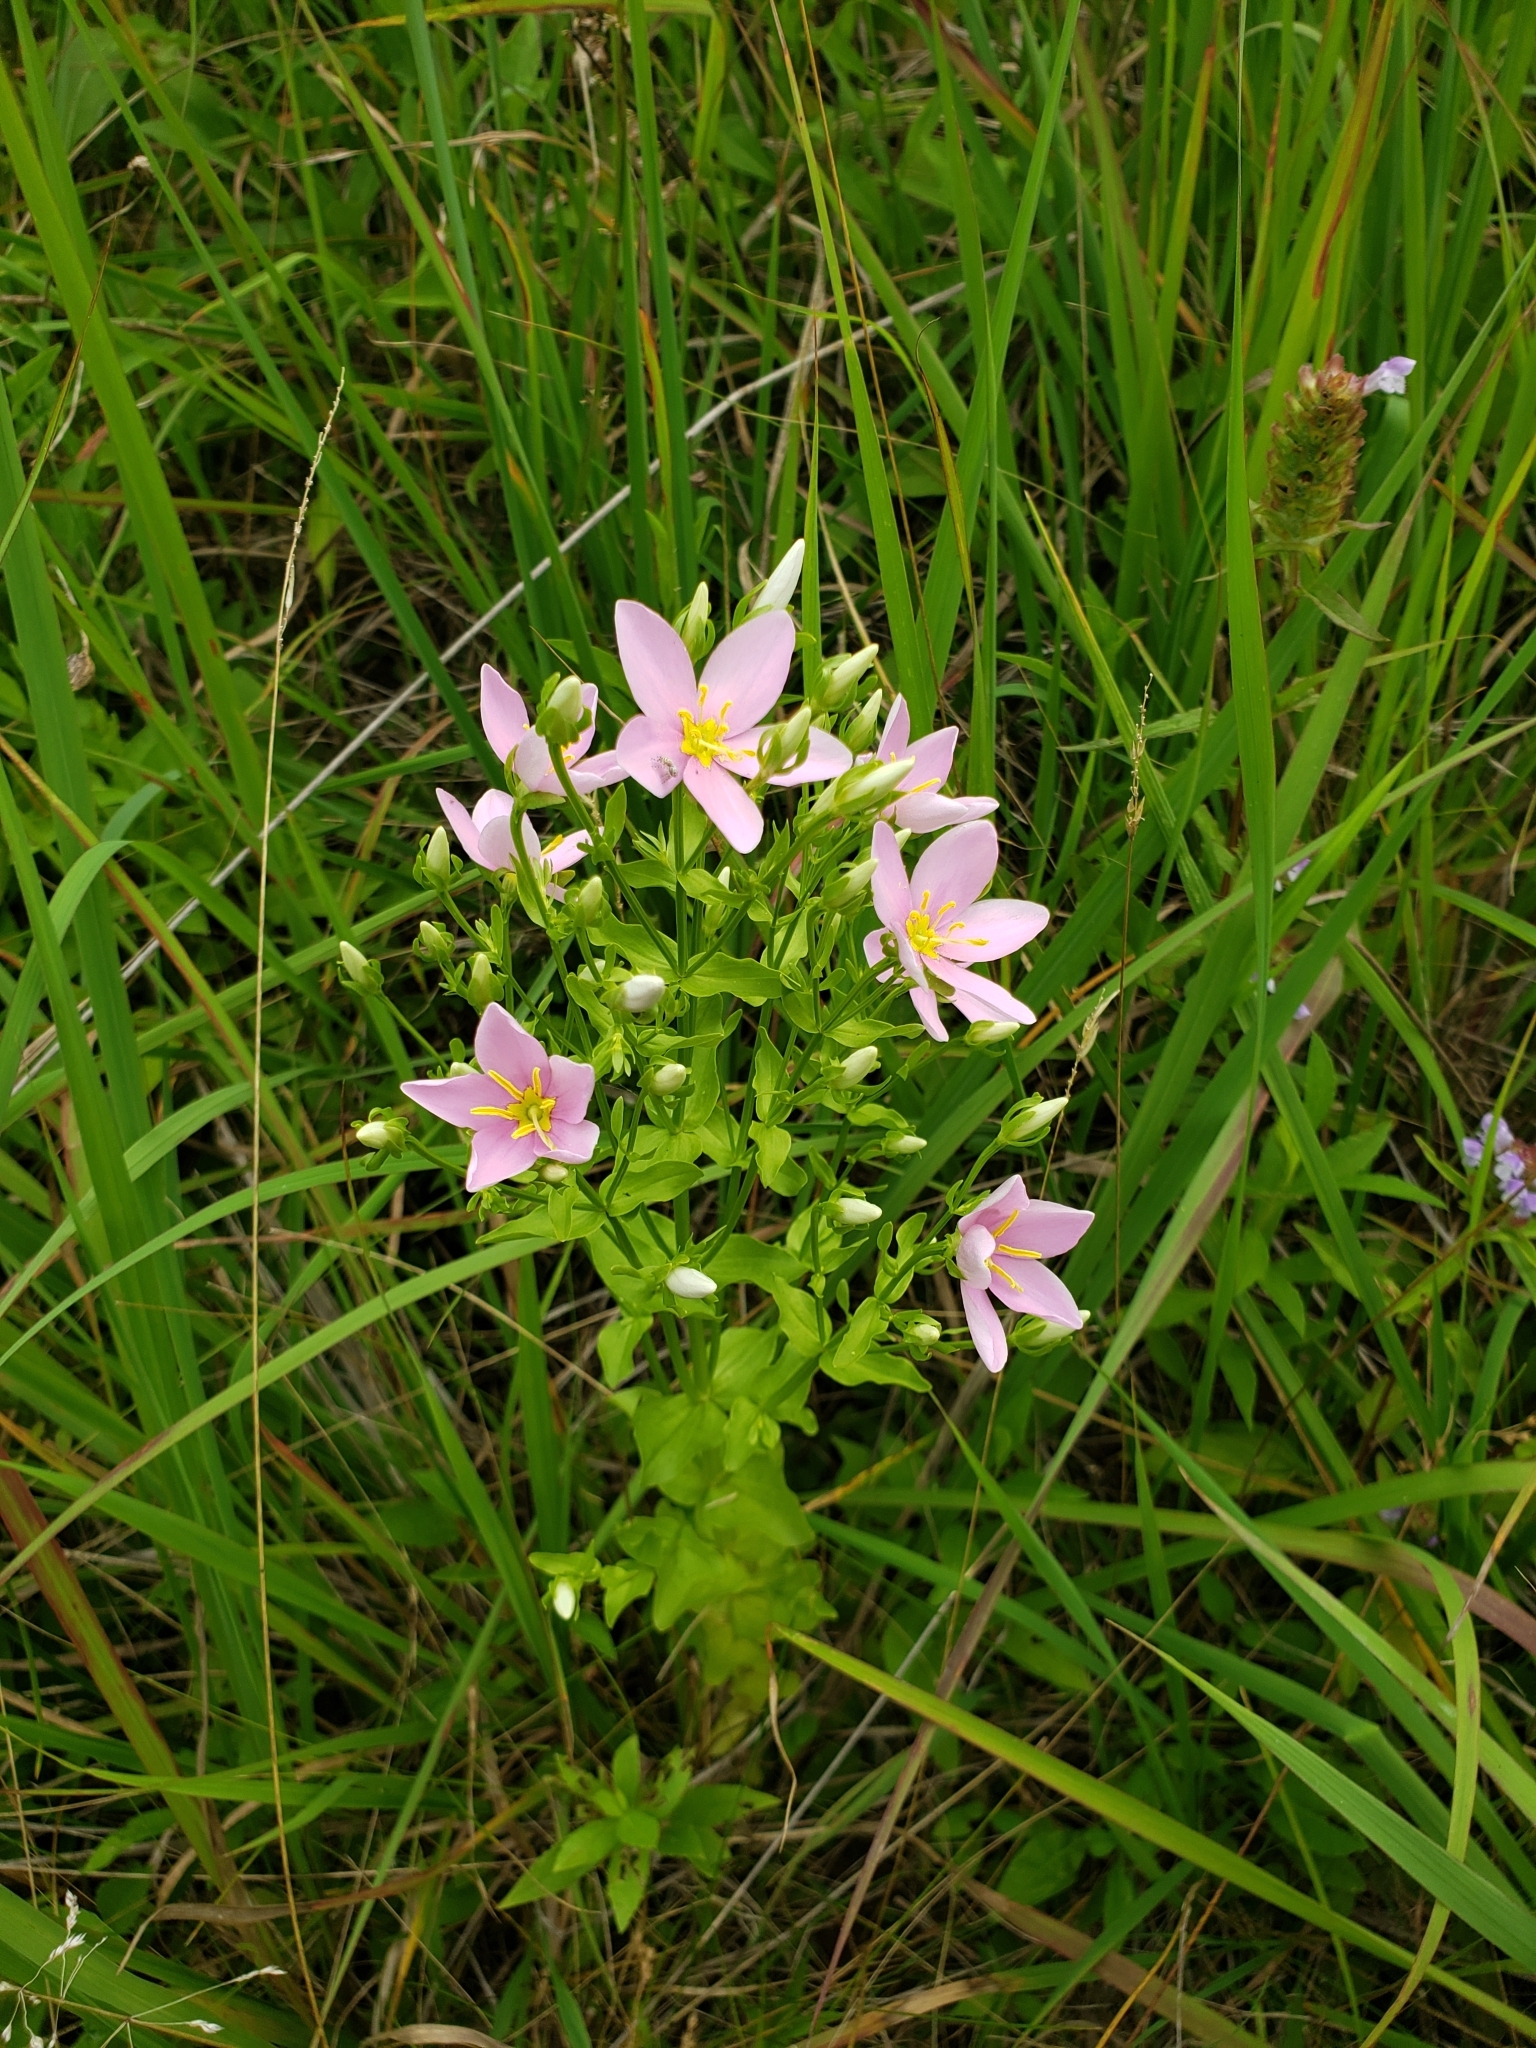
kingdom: Plantae
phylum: Tracheophyta
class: Magnoliopsida
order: Gentianales
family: Gentianaceae
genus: Sabatia
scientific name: Sabatia angularis
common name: Rose-pink
